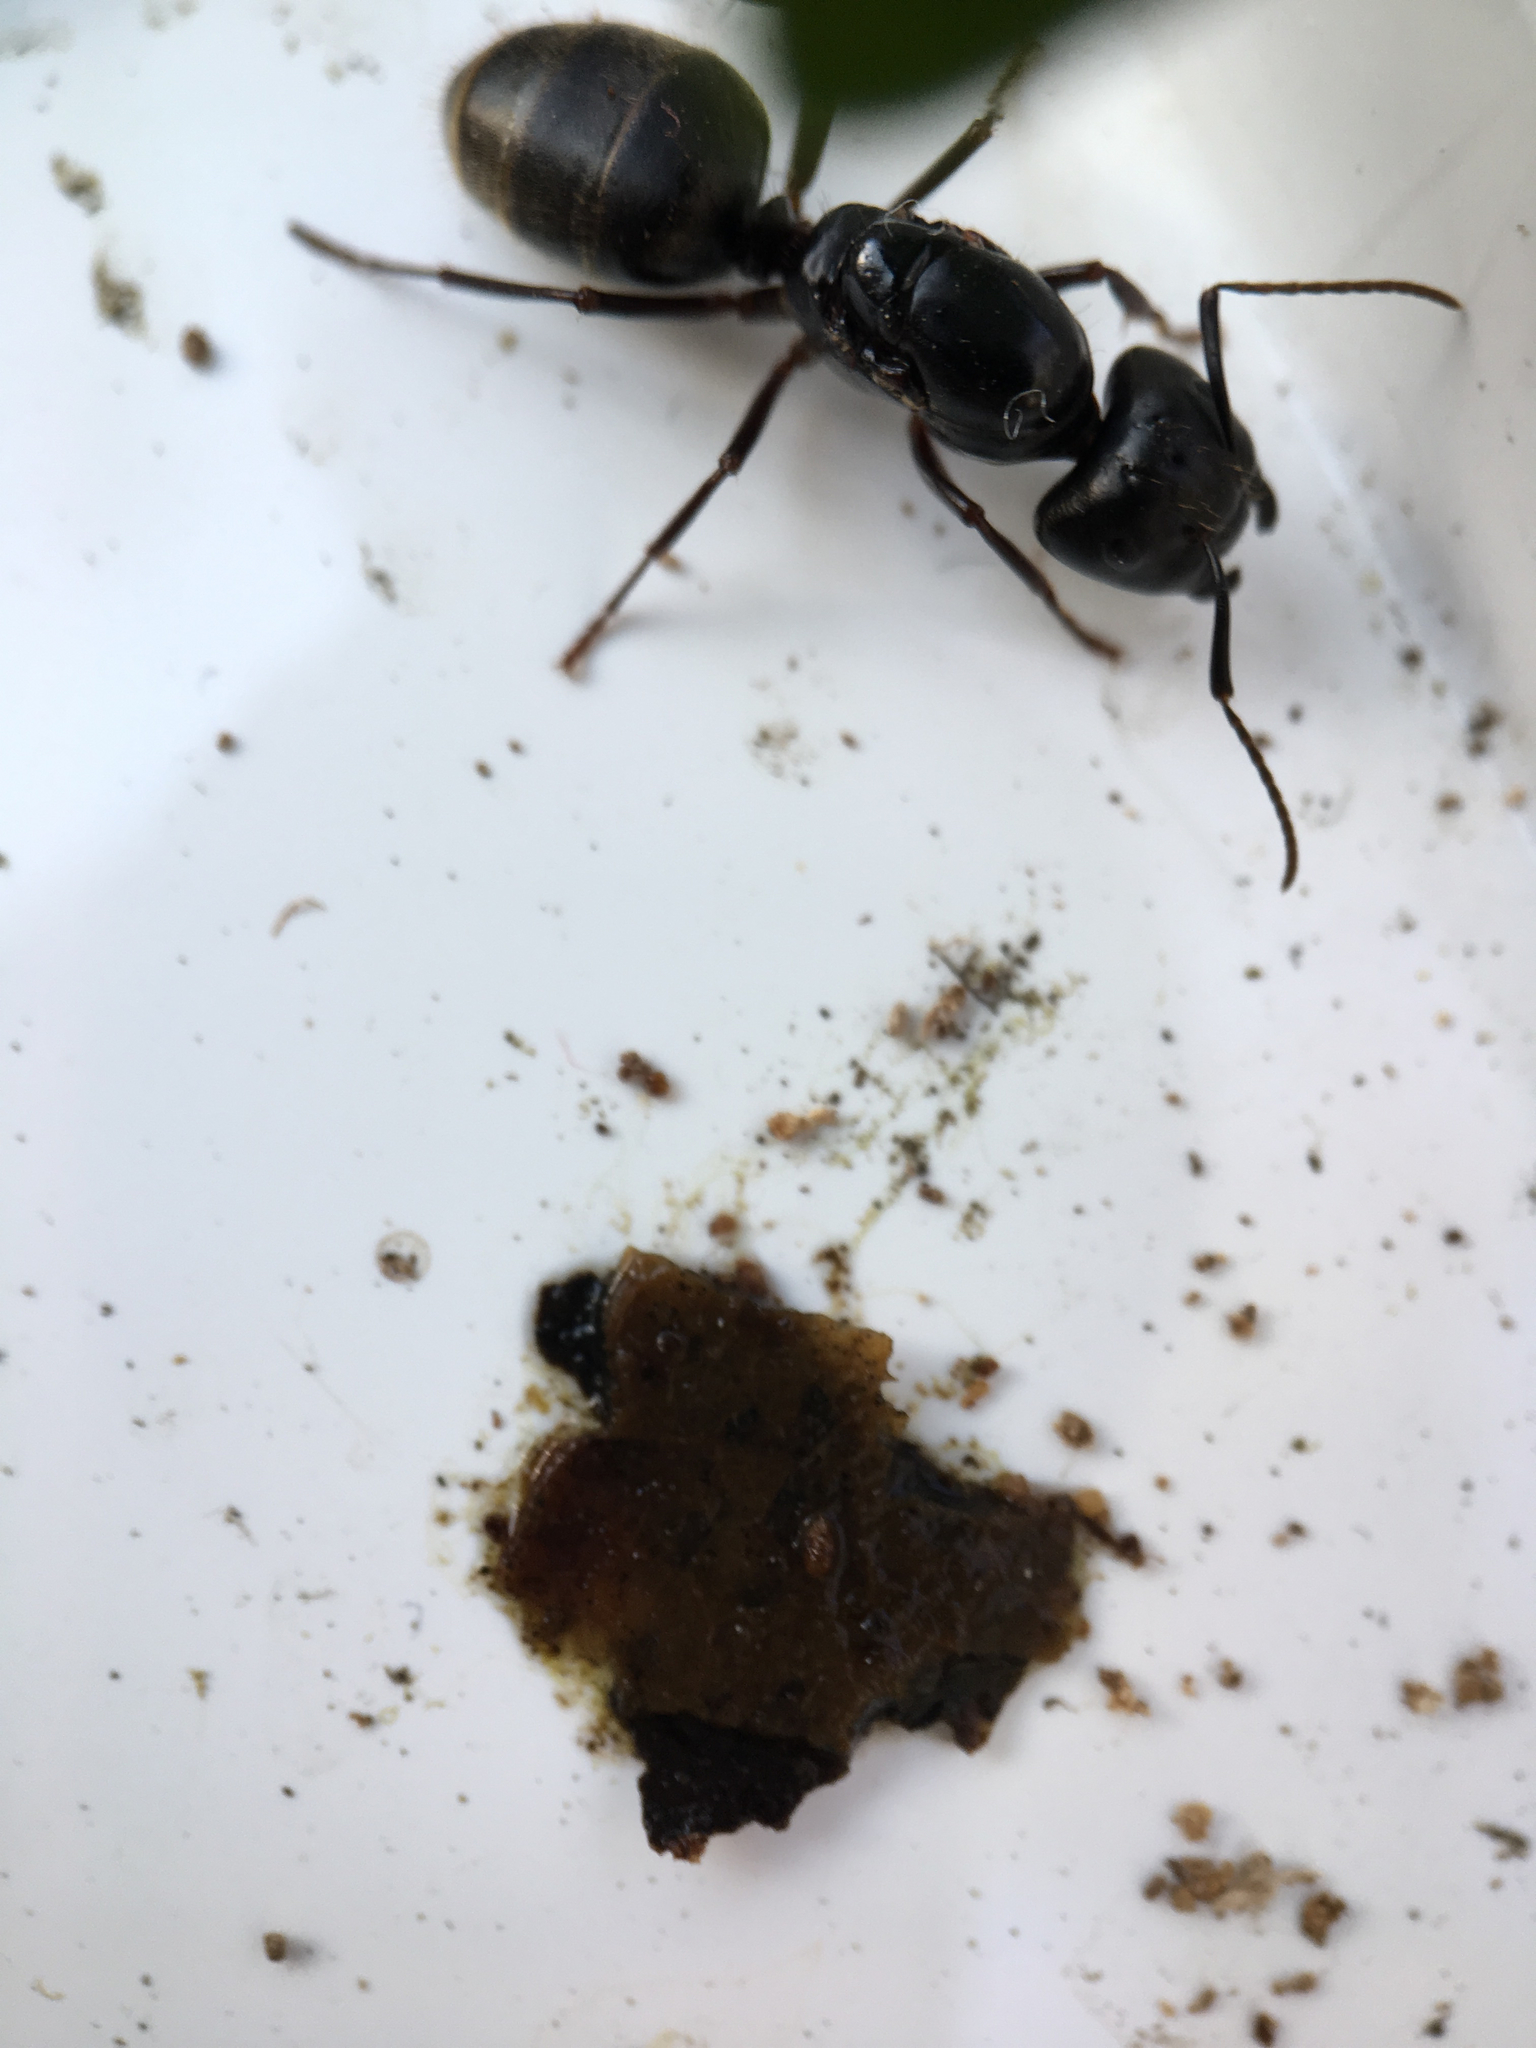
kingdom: Animalia
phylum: Arthropoda
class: Insecta
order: Hymenoptera
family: Formicidae
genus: Camponotus
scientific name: Camponotus pennsylvanicus
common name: Black carpenter ant
